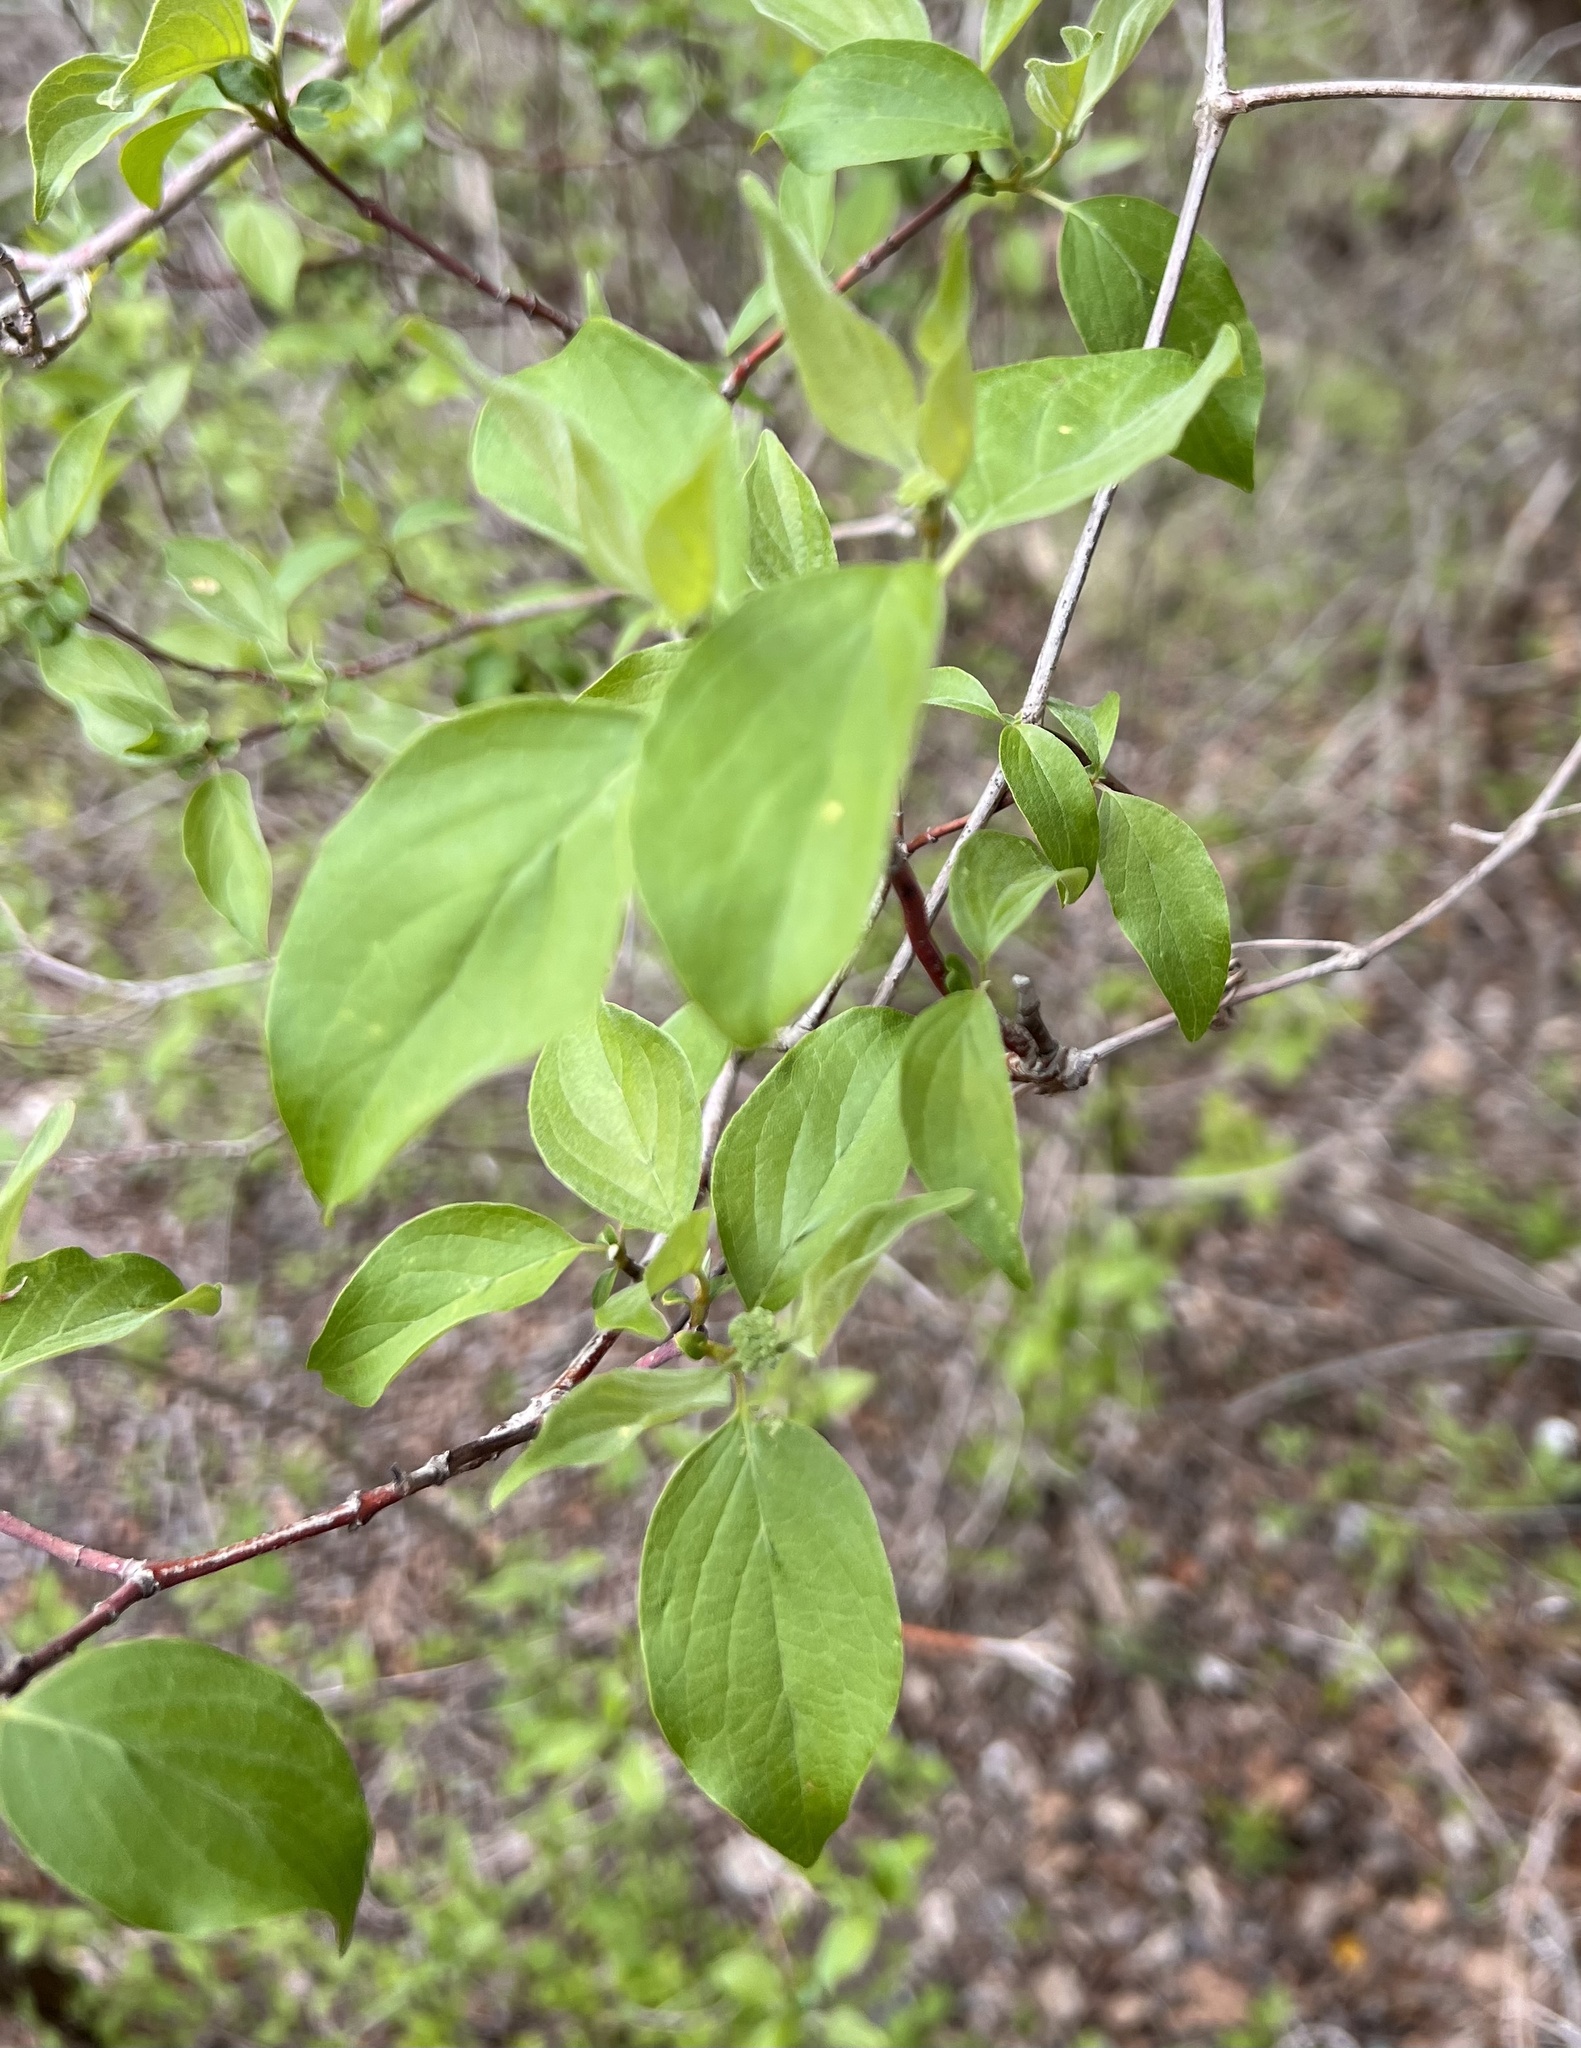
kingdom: Plantae
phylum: Tracheophyta
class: Magnoliopsida
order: Cornales
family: Cornaceae
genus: Cornus
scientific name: Cornus drummondii
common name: Rough-leaf dogwood
